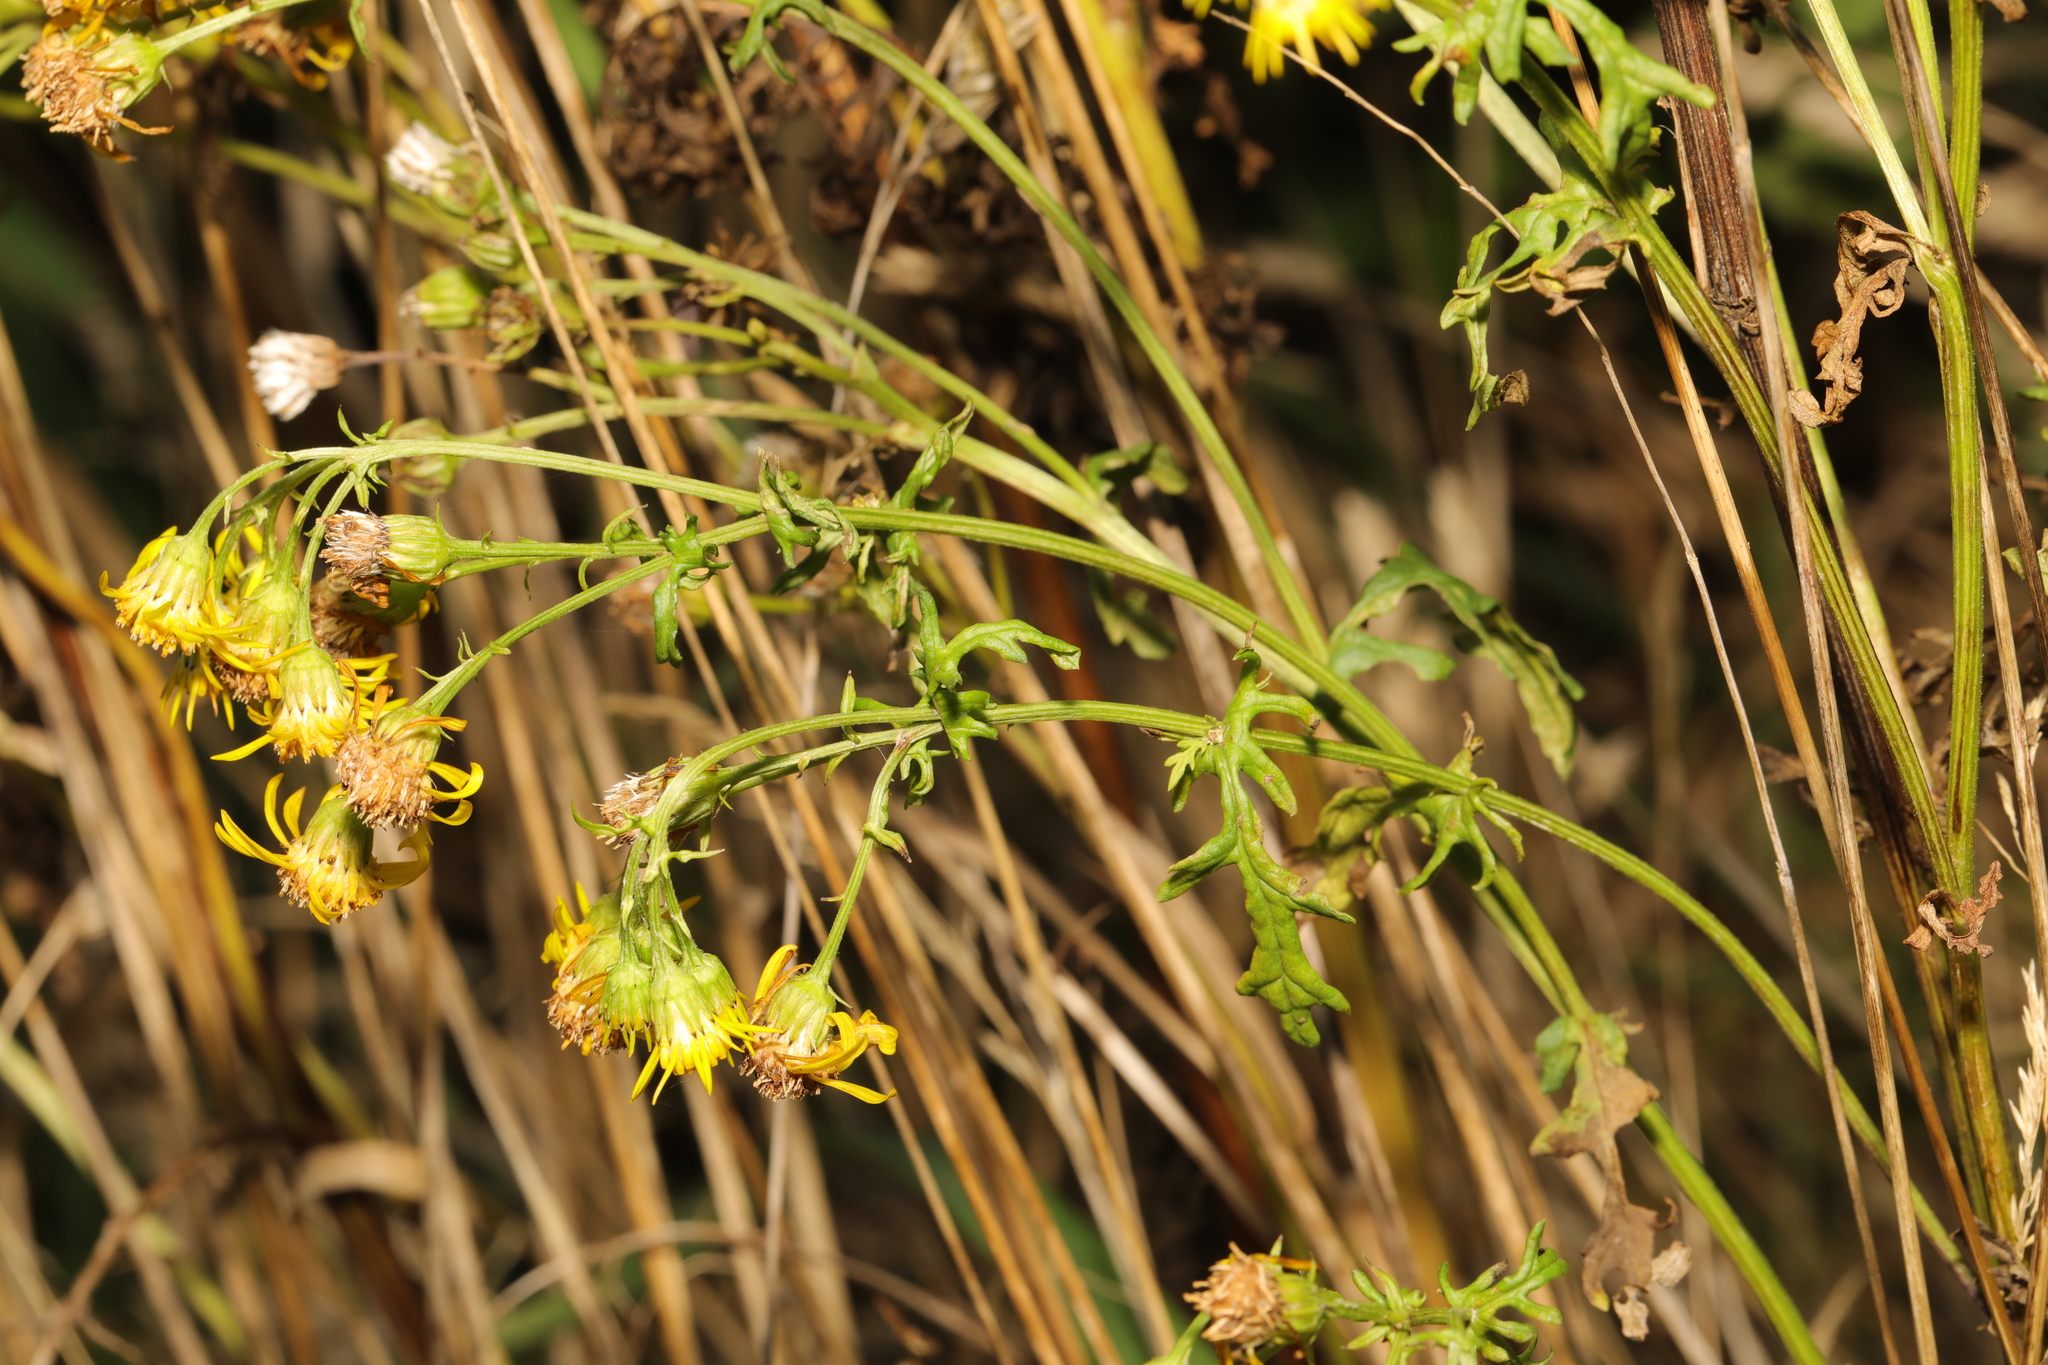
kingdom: Plantae
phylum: Tracheophyta
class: Magnoliopsida
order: Asterales
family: Asteraceae
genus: Jacobaea
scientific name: Jacobaea vulgaris
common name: Stinking willie
